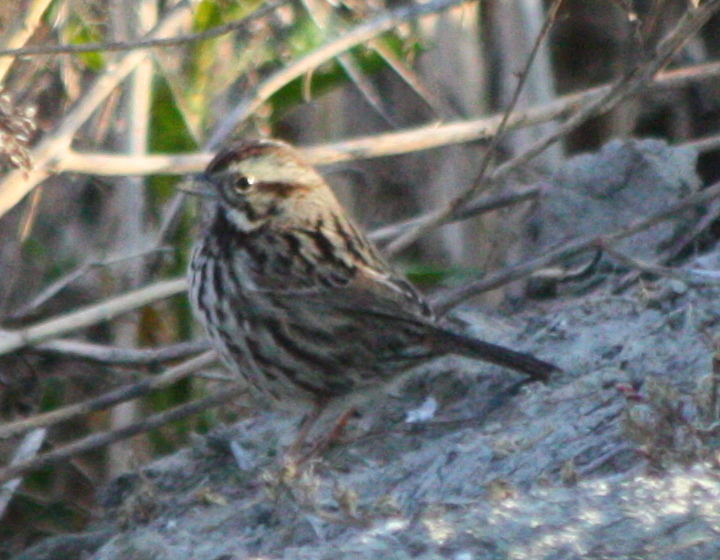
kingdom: Animalia
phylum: Chordata
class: Aves
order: Passeriformes
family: Passerellidae
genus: Melospiza
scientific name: Melospiza melodia
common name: Song sparrow
